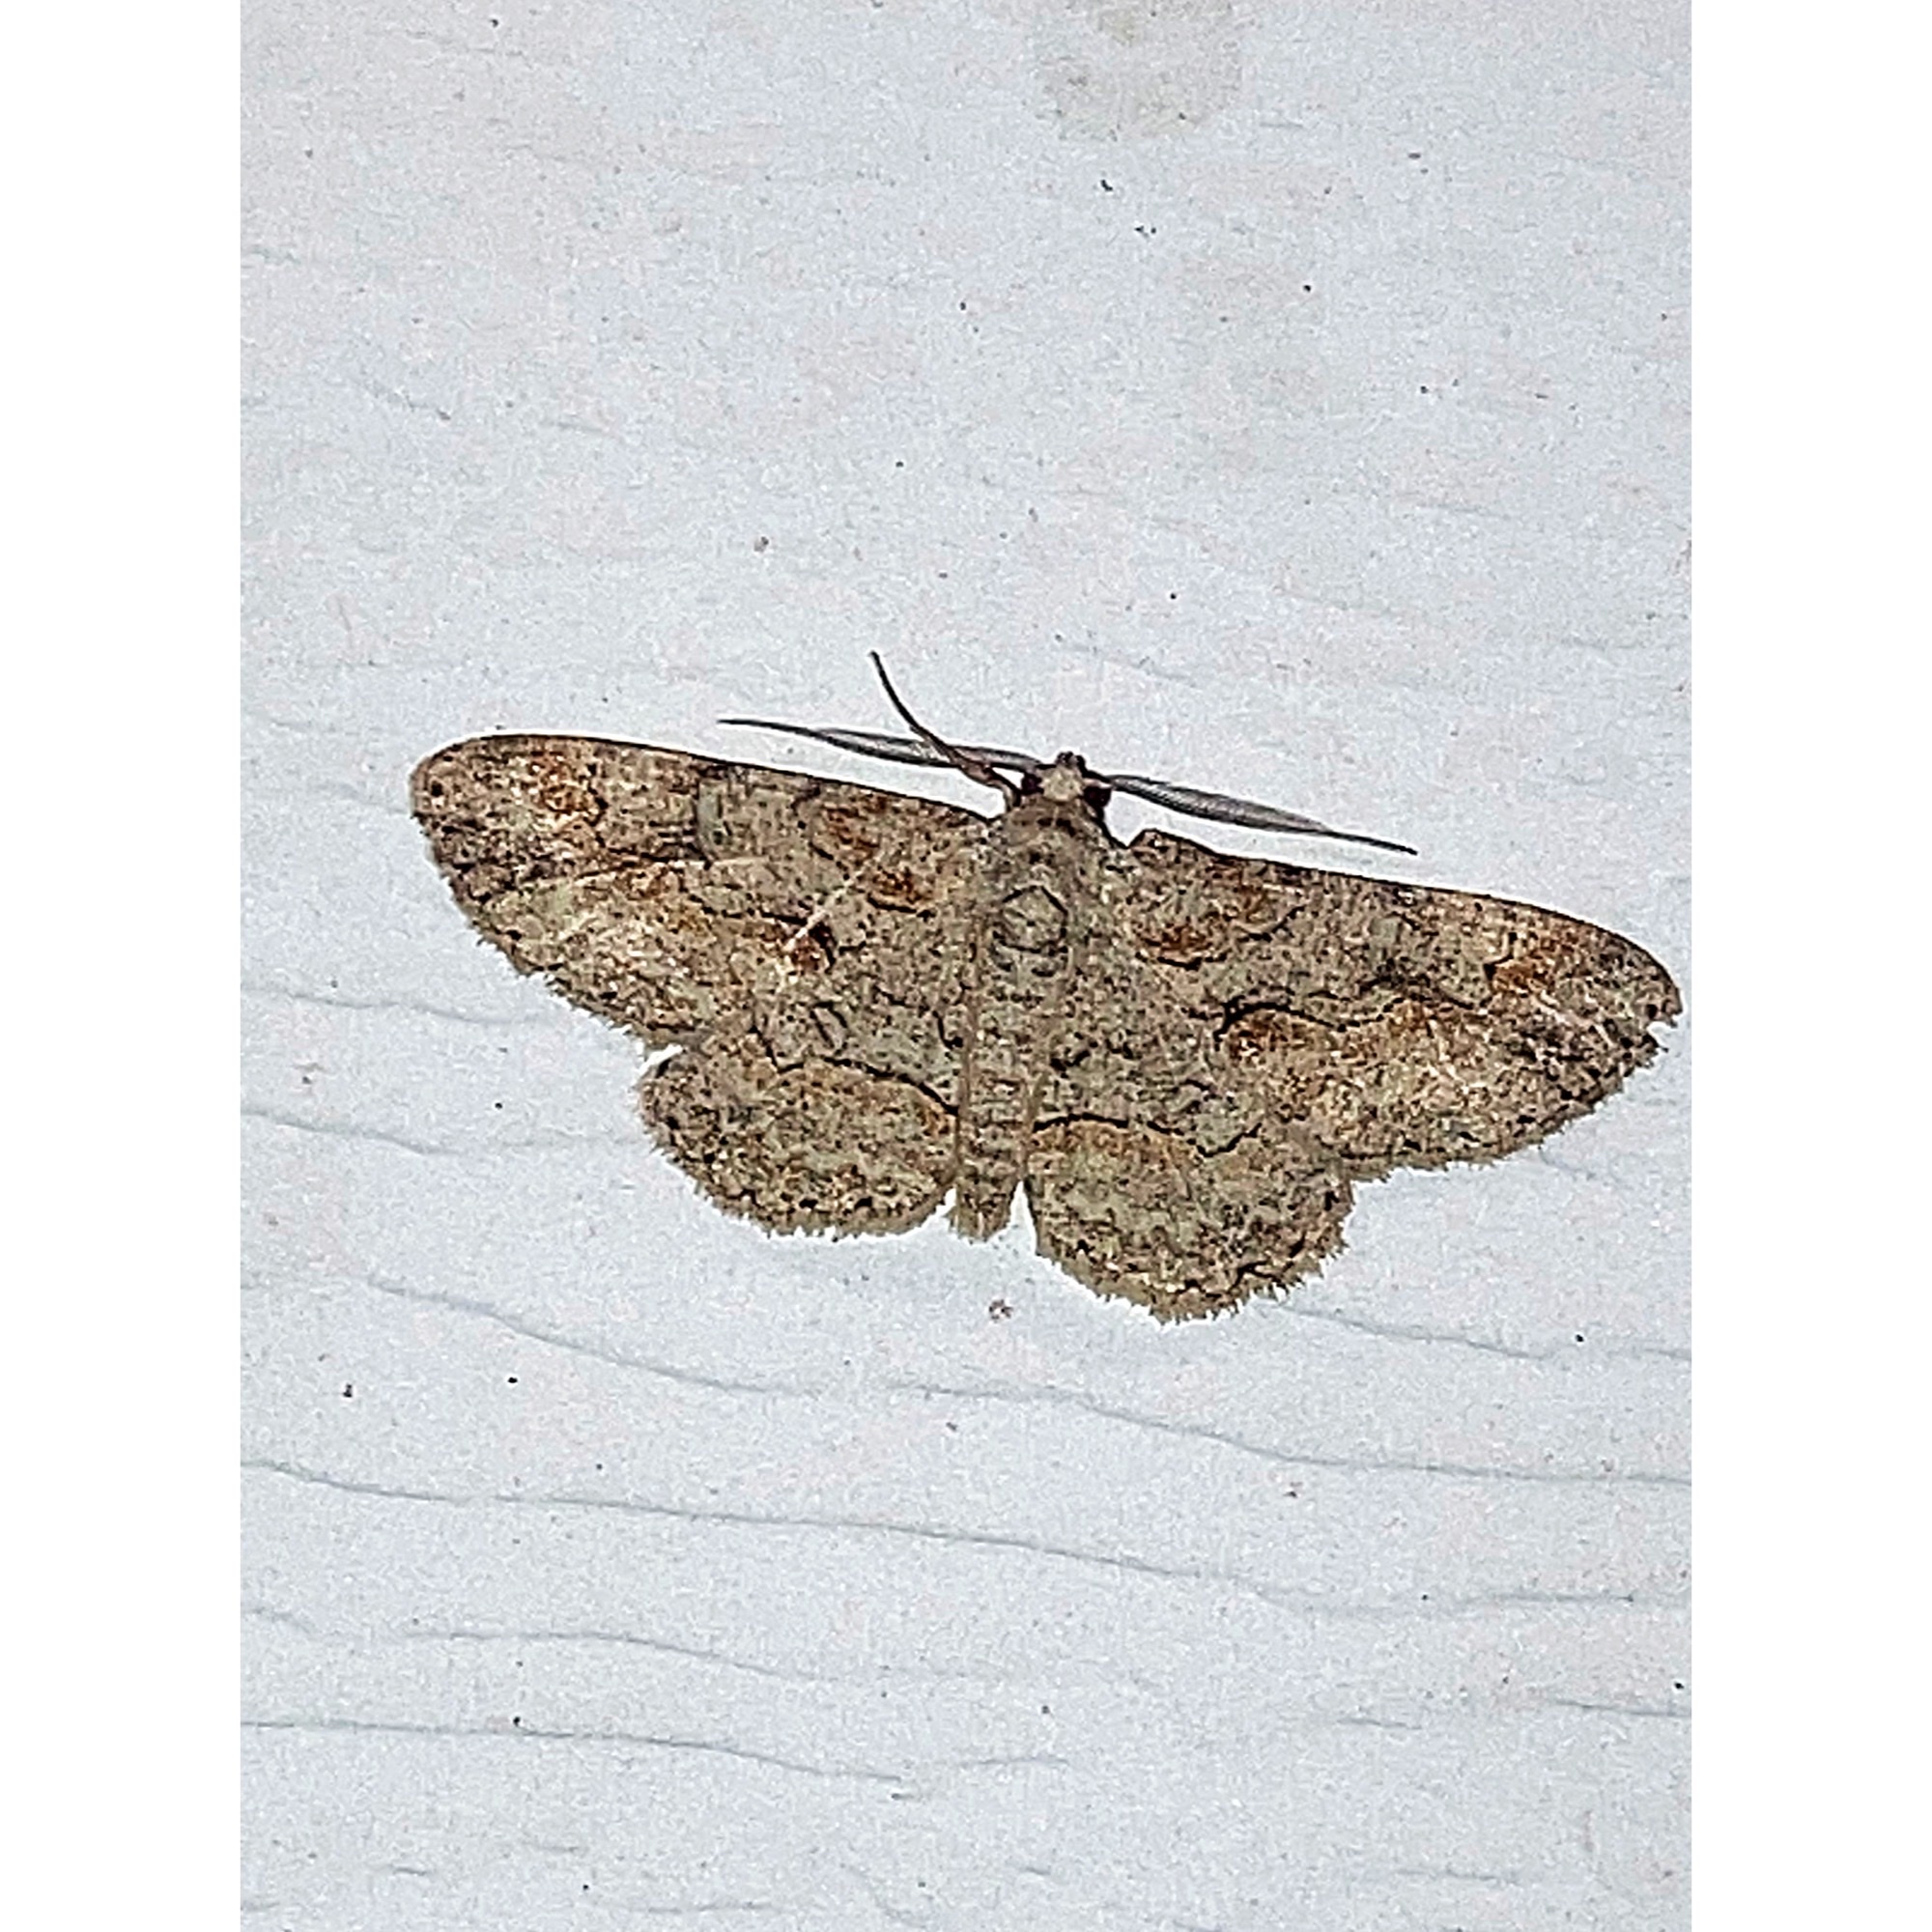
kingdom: Animalia
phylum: Arthropoda
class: Insecta
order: Lepidoptera
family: Geometridae
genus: Iridopsis
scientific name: Iridopsis defectaria
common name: Brown-shaded gray
